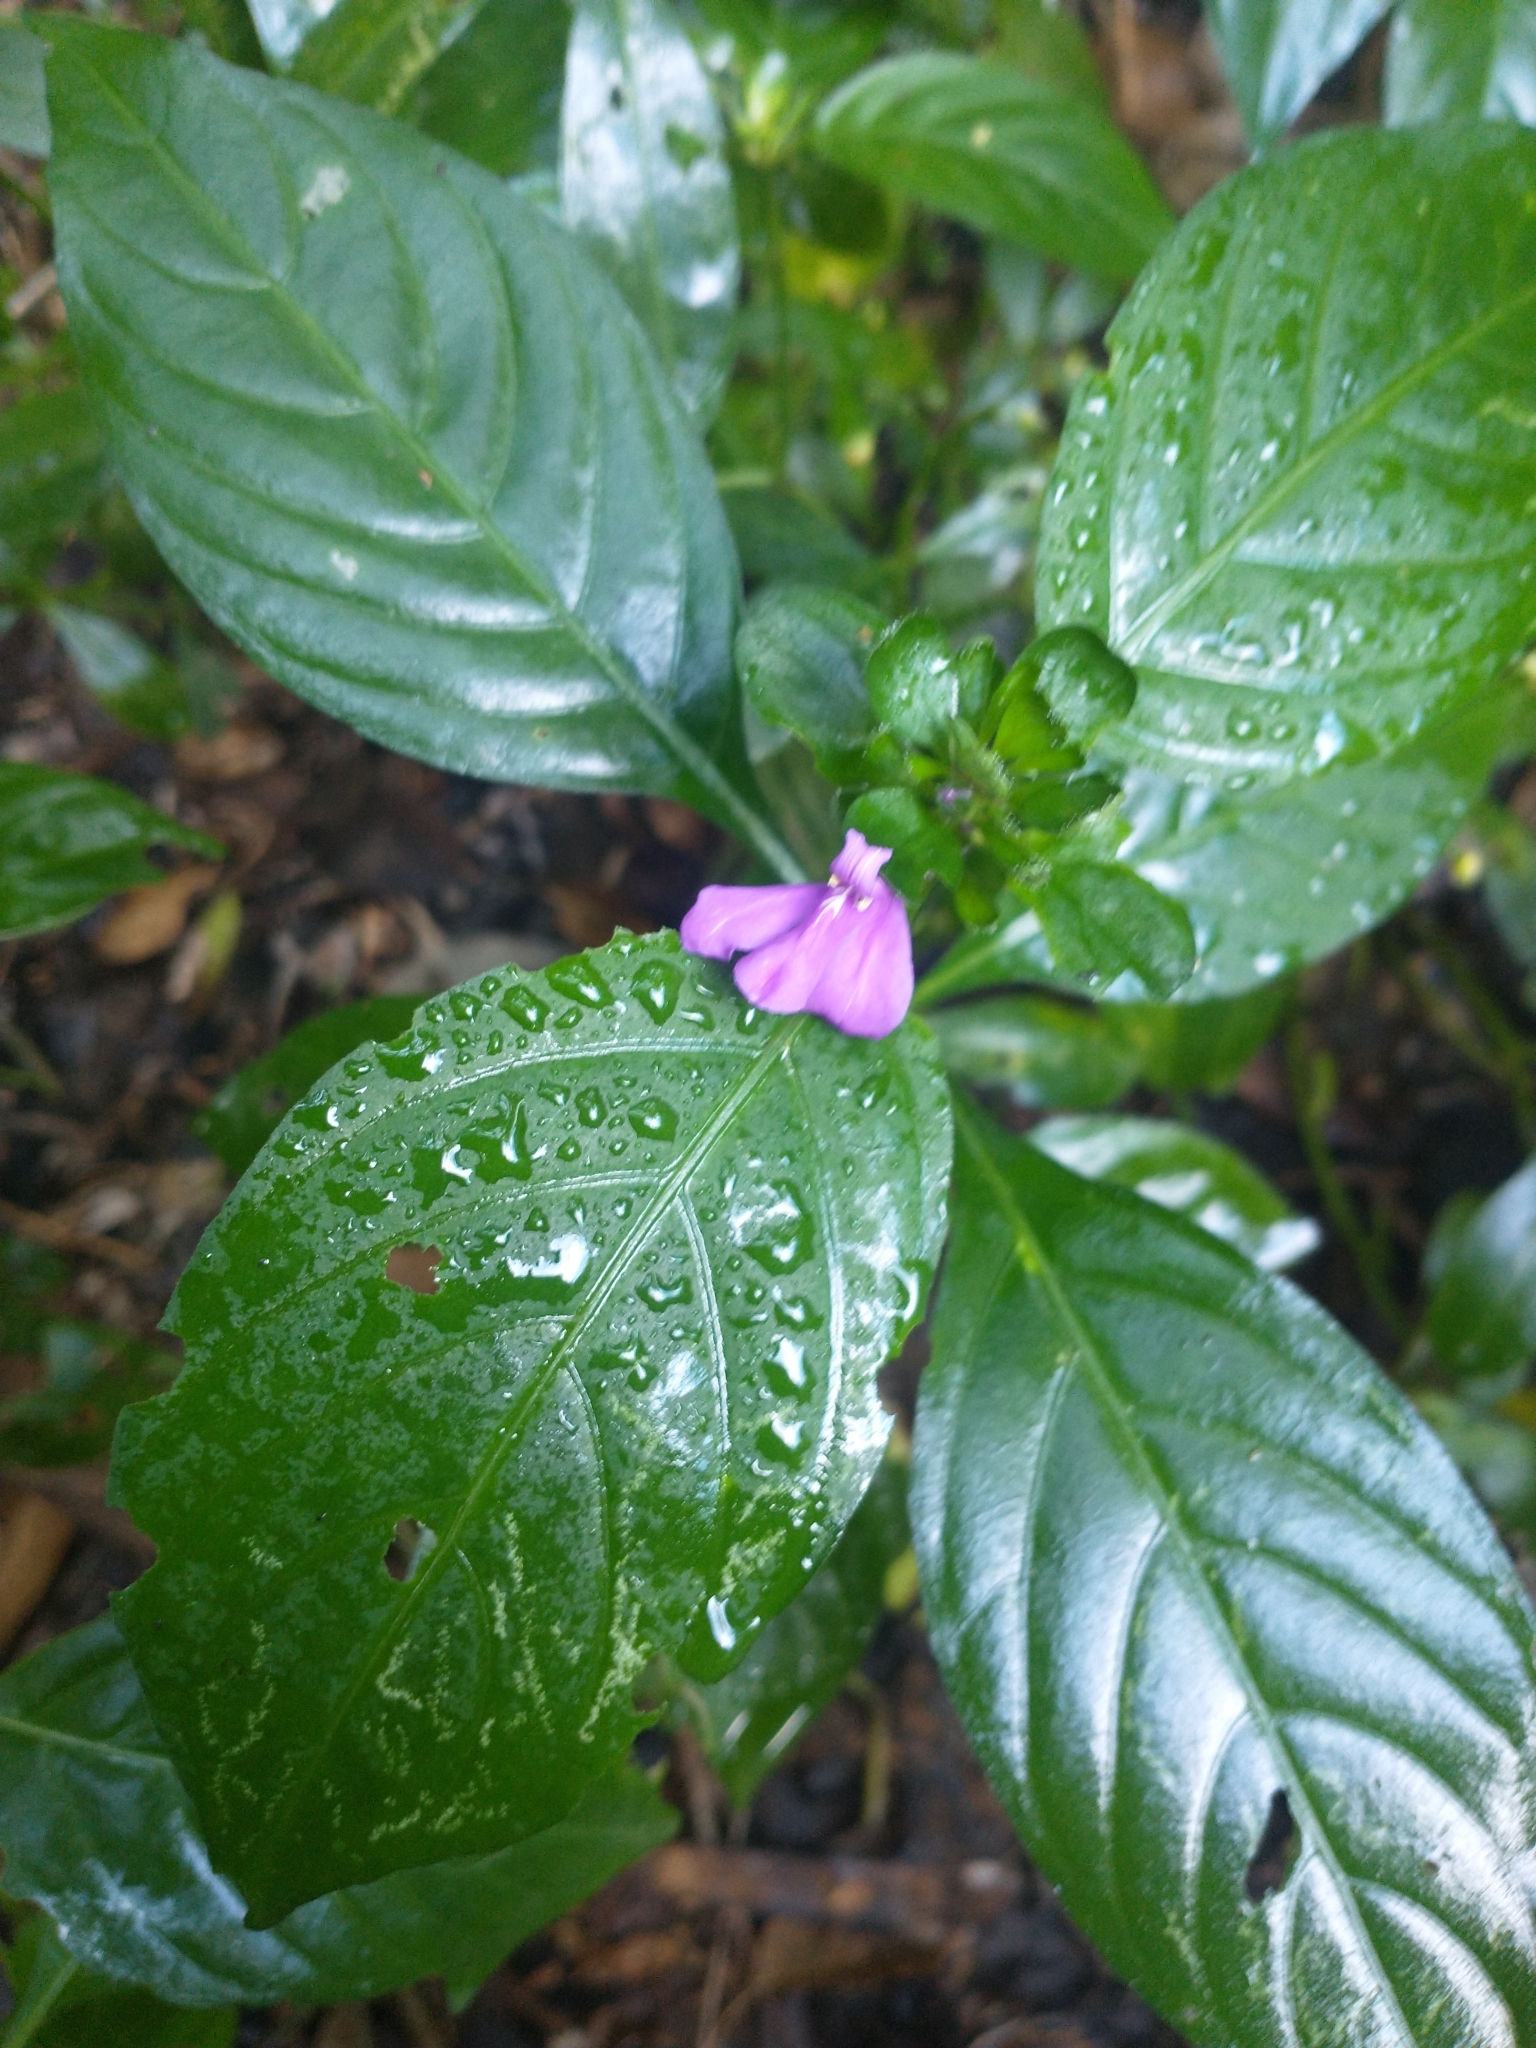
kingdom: Plantae
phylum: Tracheophyta
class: Magnoliopsida
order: Lamiales
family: Acanthaceae
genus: Justicia
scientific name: Justicia carthaginensis
